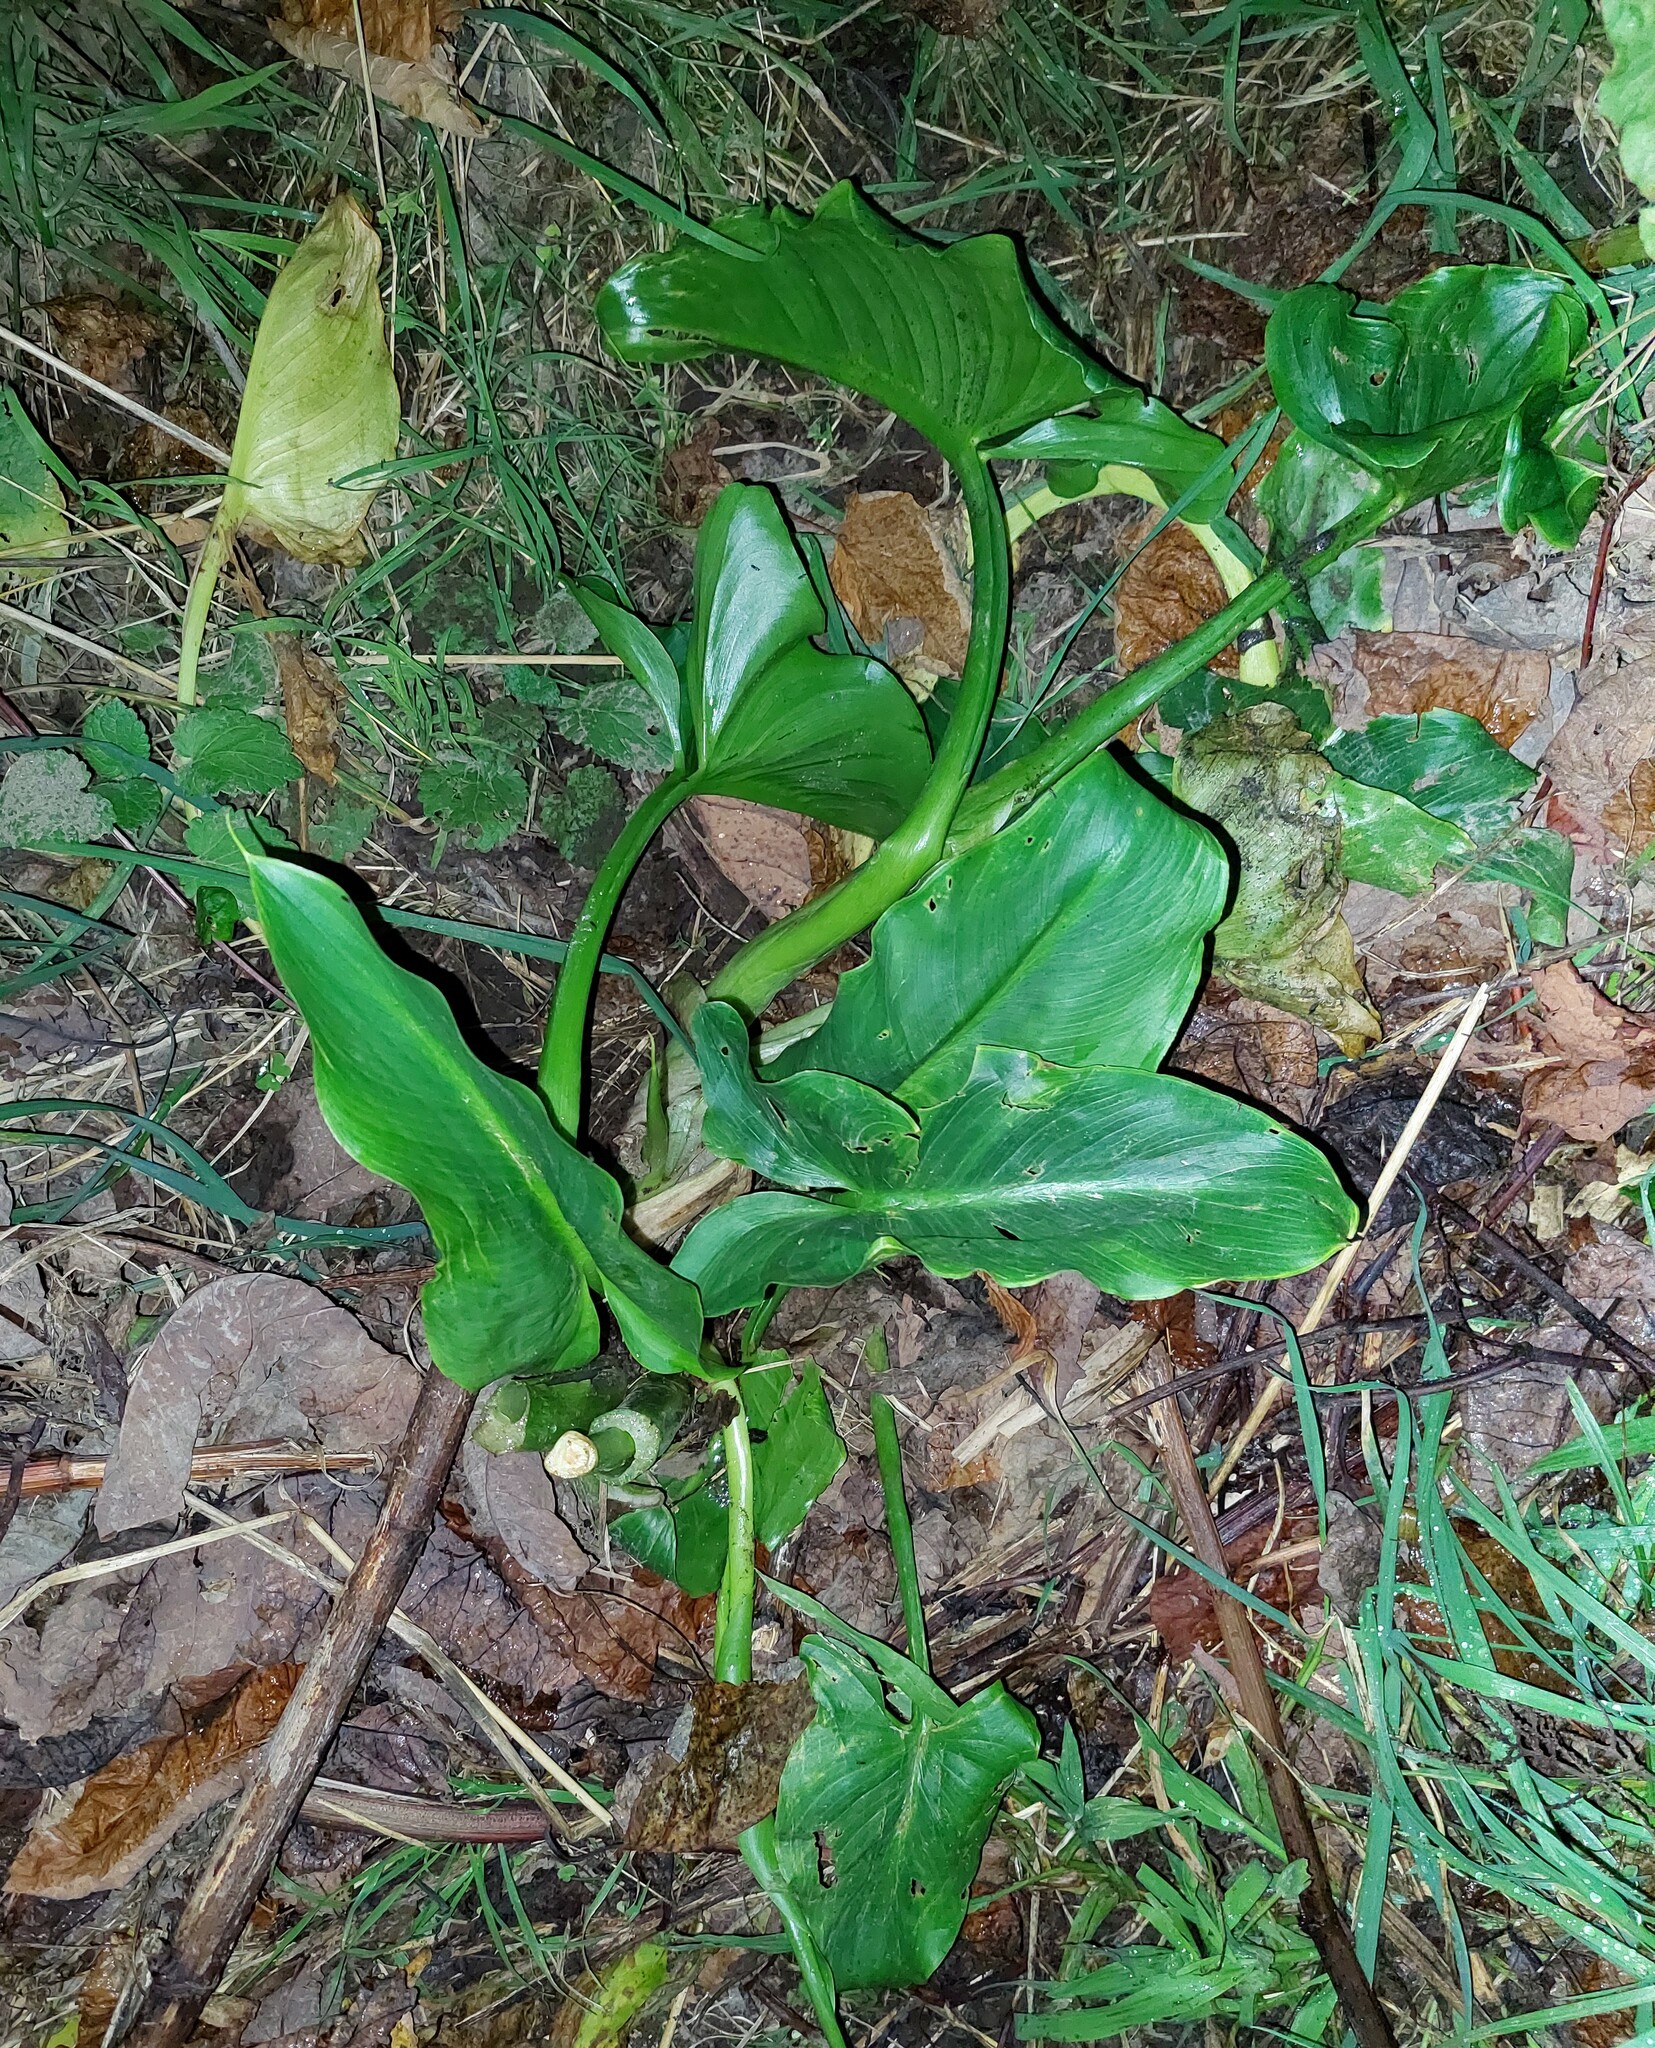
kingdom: Plantae
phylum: Tracheophyta
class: Liliopsida
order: Alismatales
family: Araceae
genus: Zantedeschia
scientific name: Zantedeschia aethiopica
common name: Altar-lily
